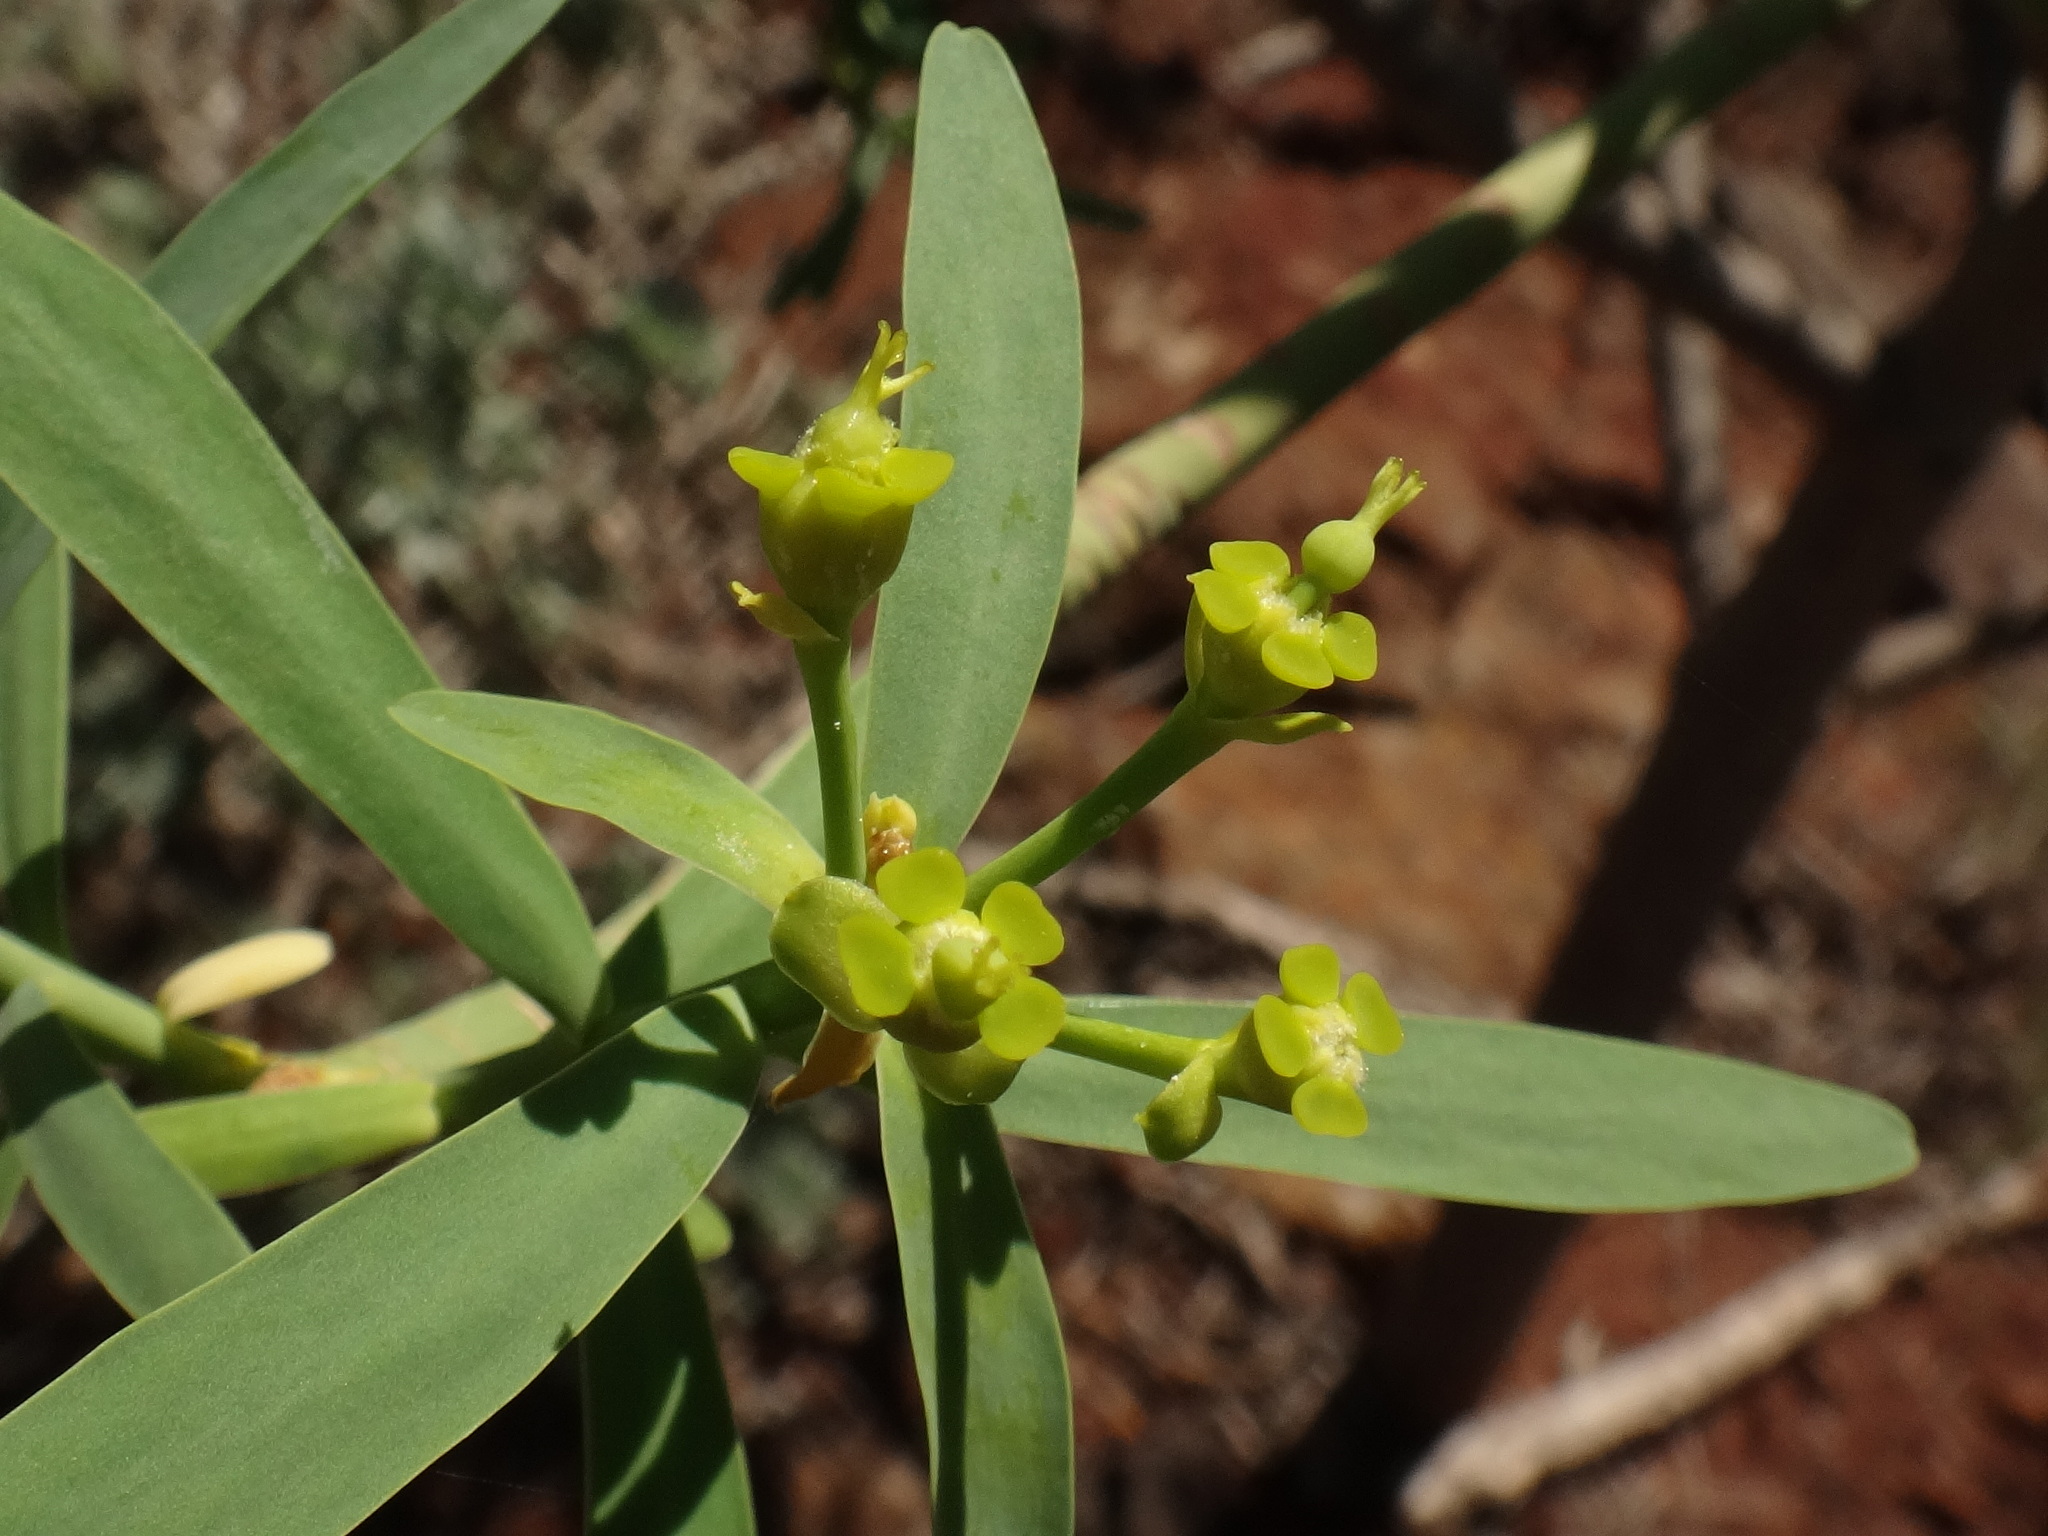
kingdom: Plantae
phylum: Tracheophyta
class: Magnoliopsida
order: Malpighiales
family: Euphorbiaceae
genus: Euphorbia
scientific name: Euphorbia lamarckii
